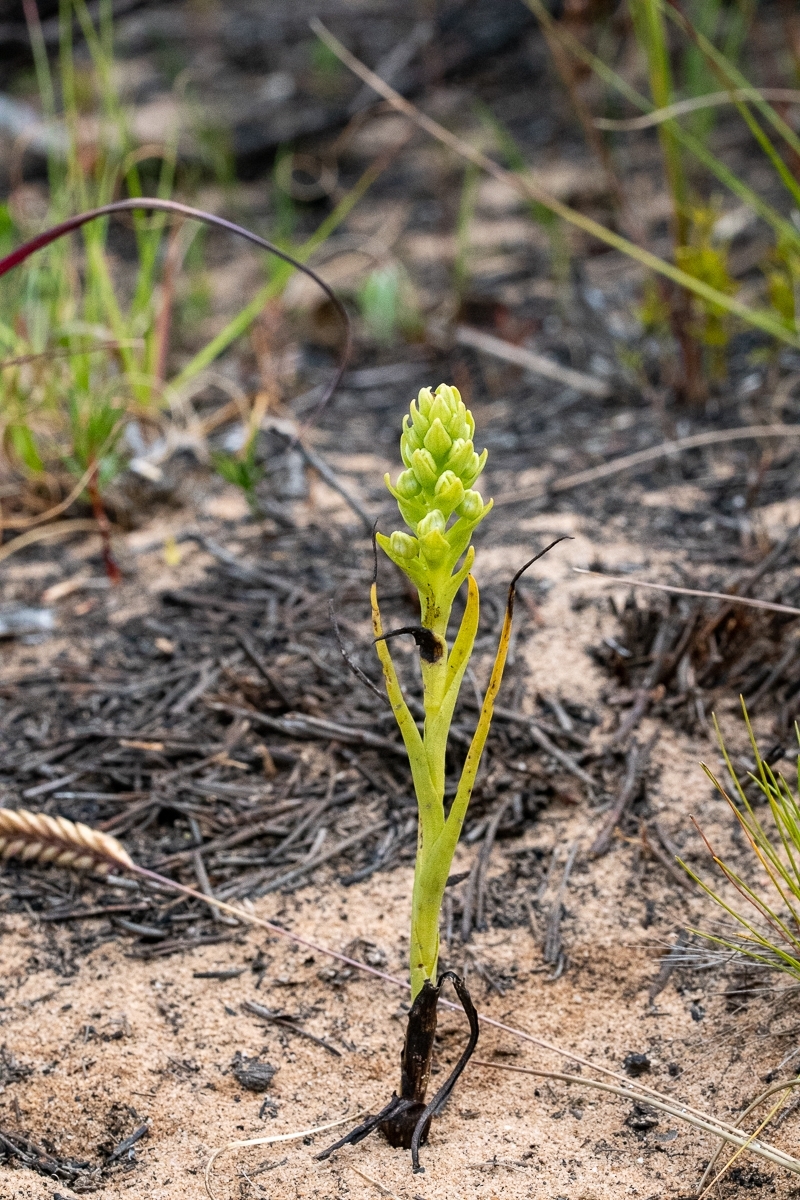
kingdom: Plantae
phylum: Tracheophyta
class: Liliopsida
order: Asparagales
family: Orchidaceae
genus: Corycium
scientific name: Corycium excisum
